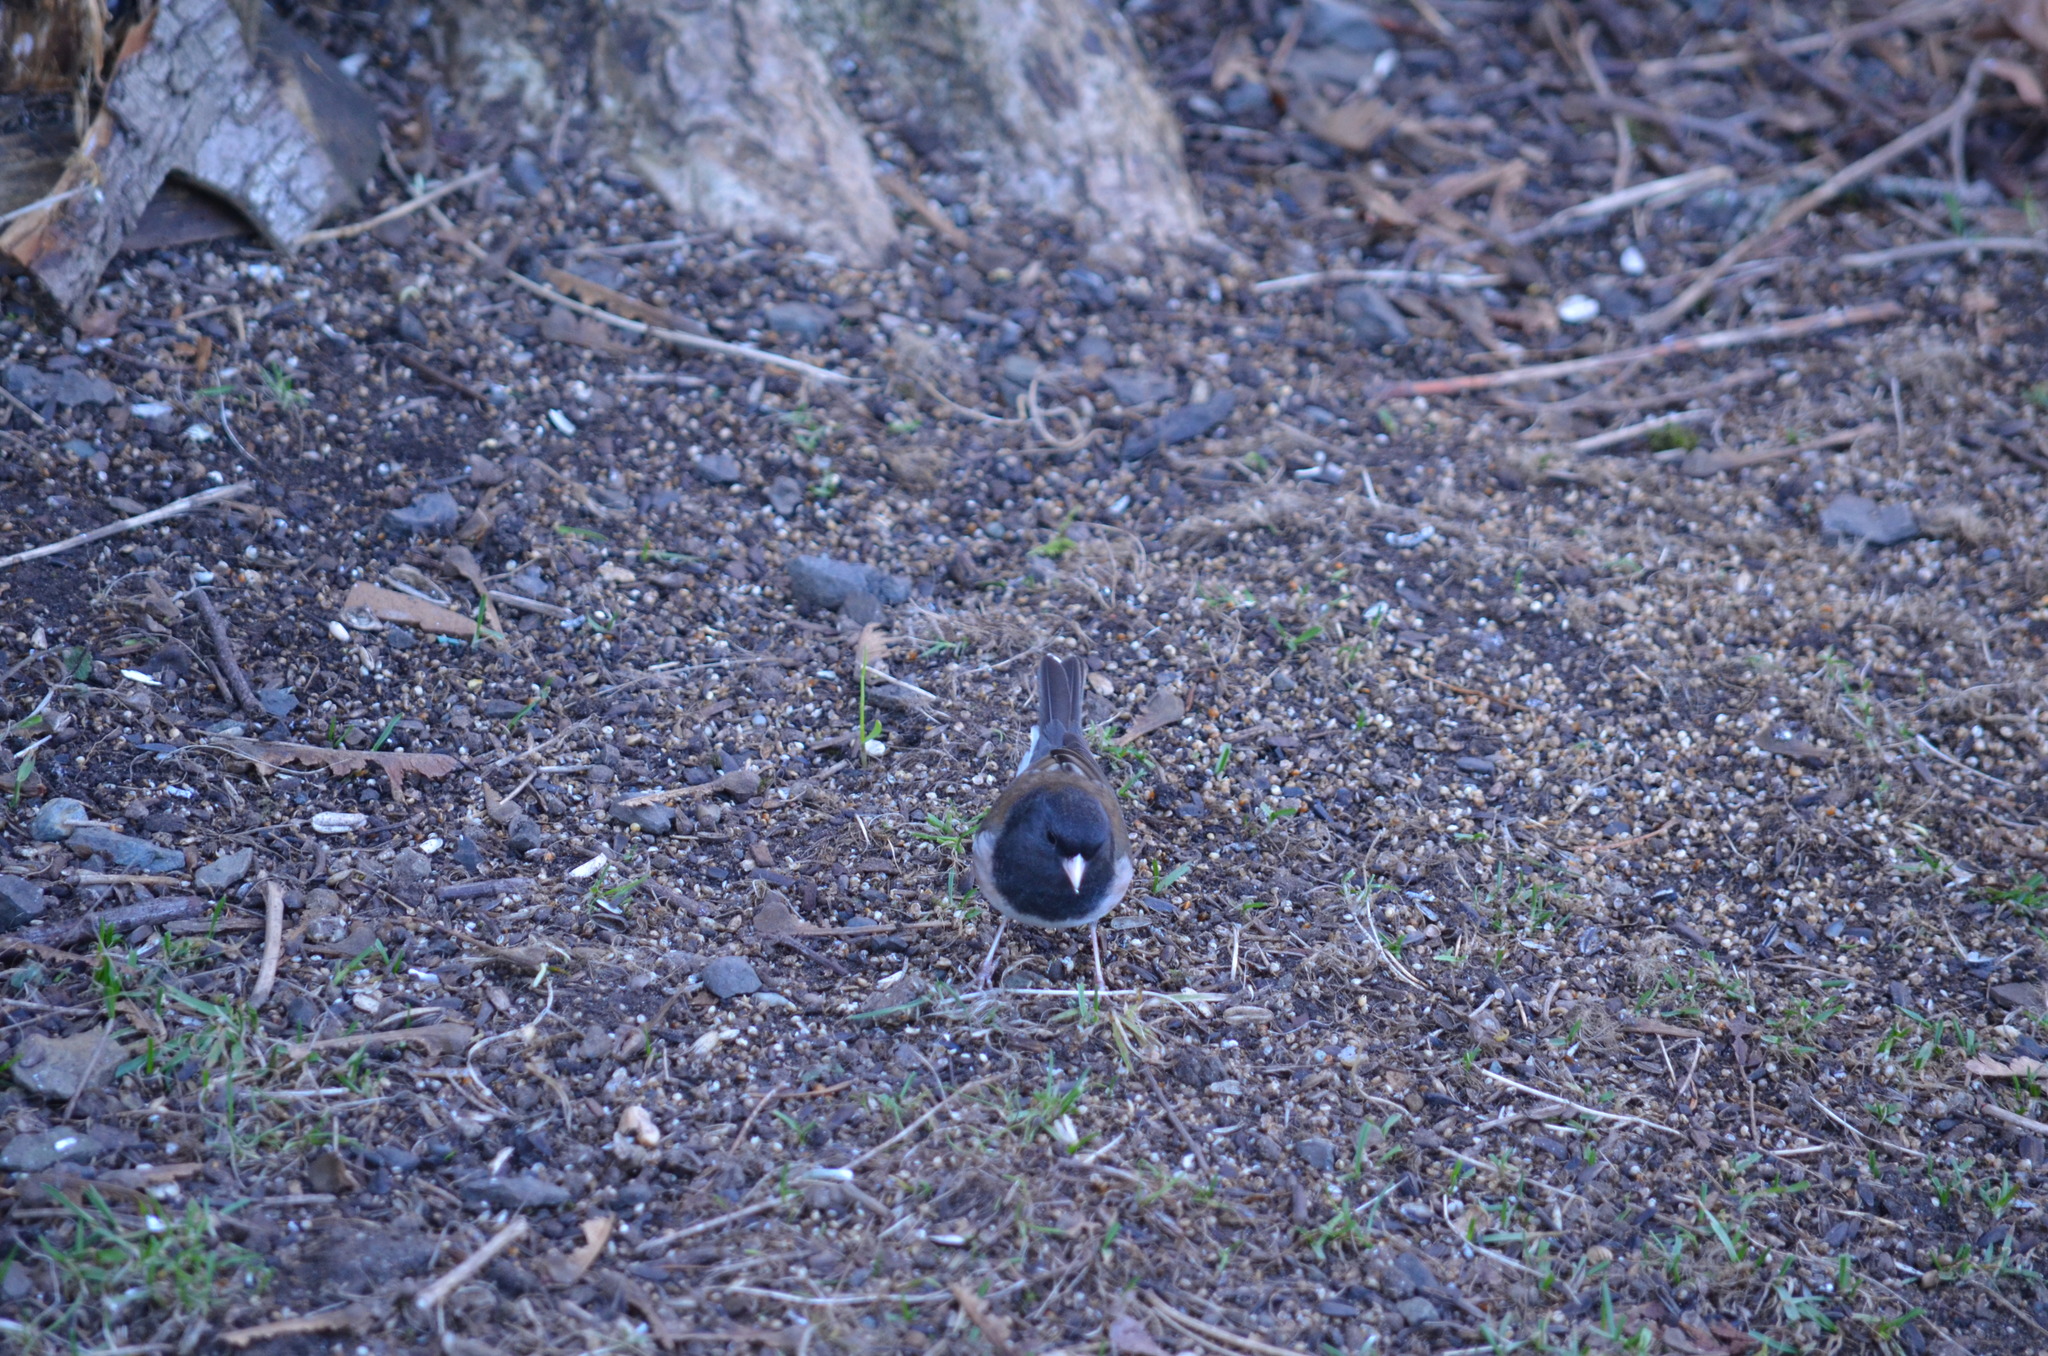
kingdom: Animalia
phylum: Chordata
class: Aves
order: Passeriformes
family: Passerellidae
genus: Junco
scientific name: Junco hyemalis
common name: Dark-eyed junco
